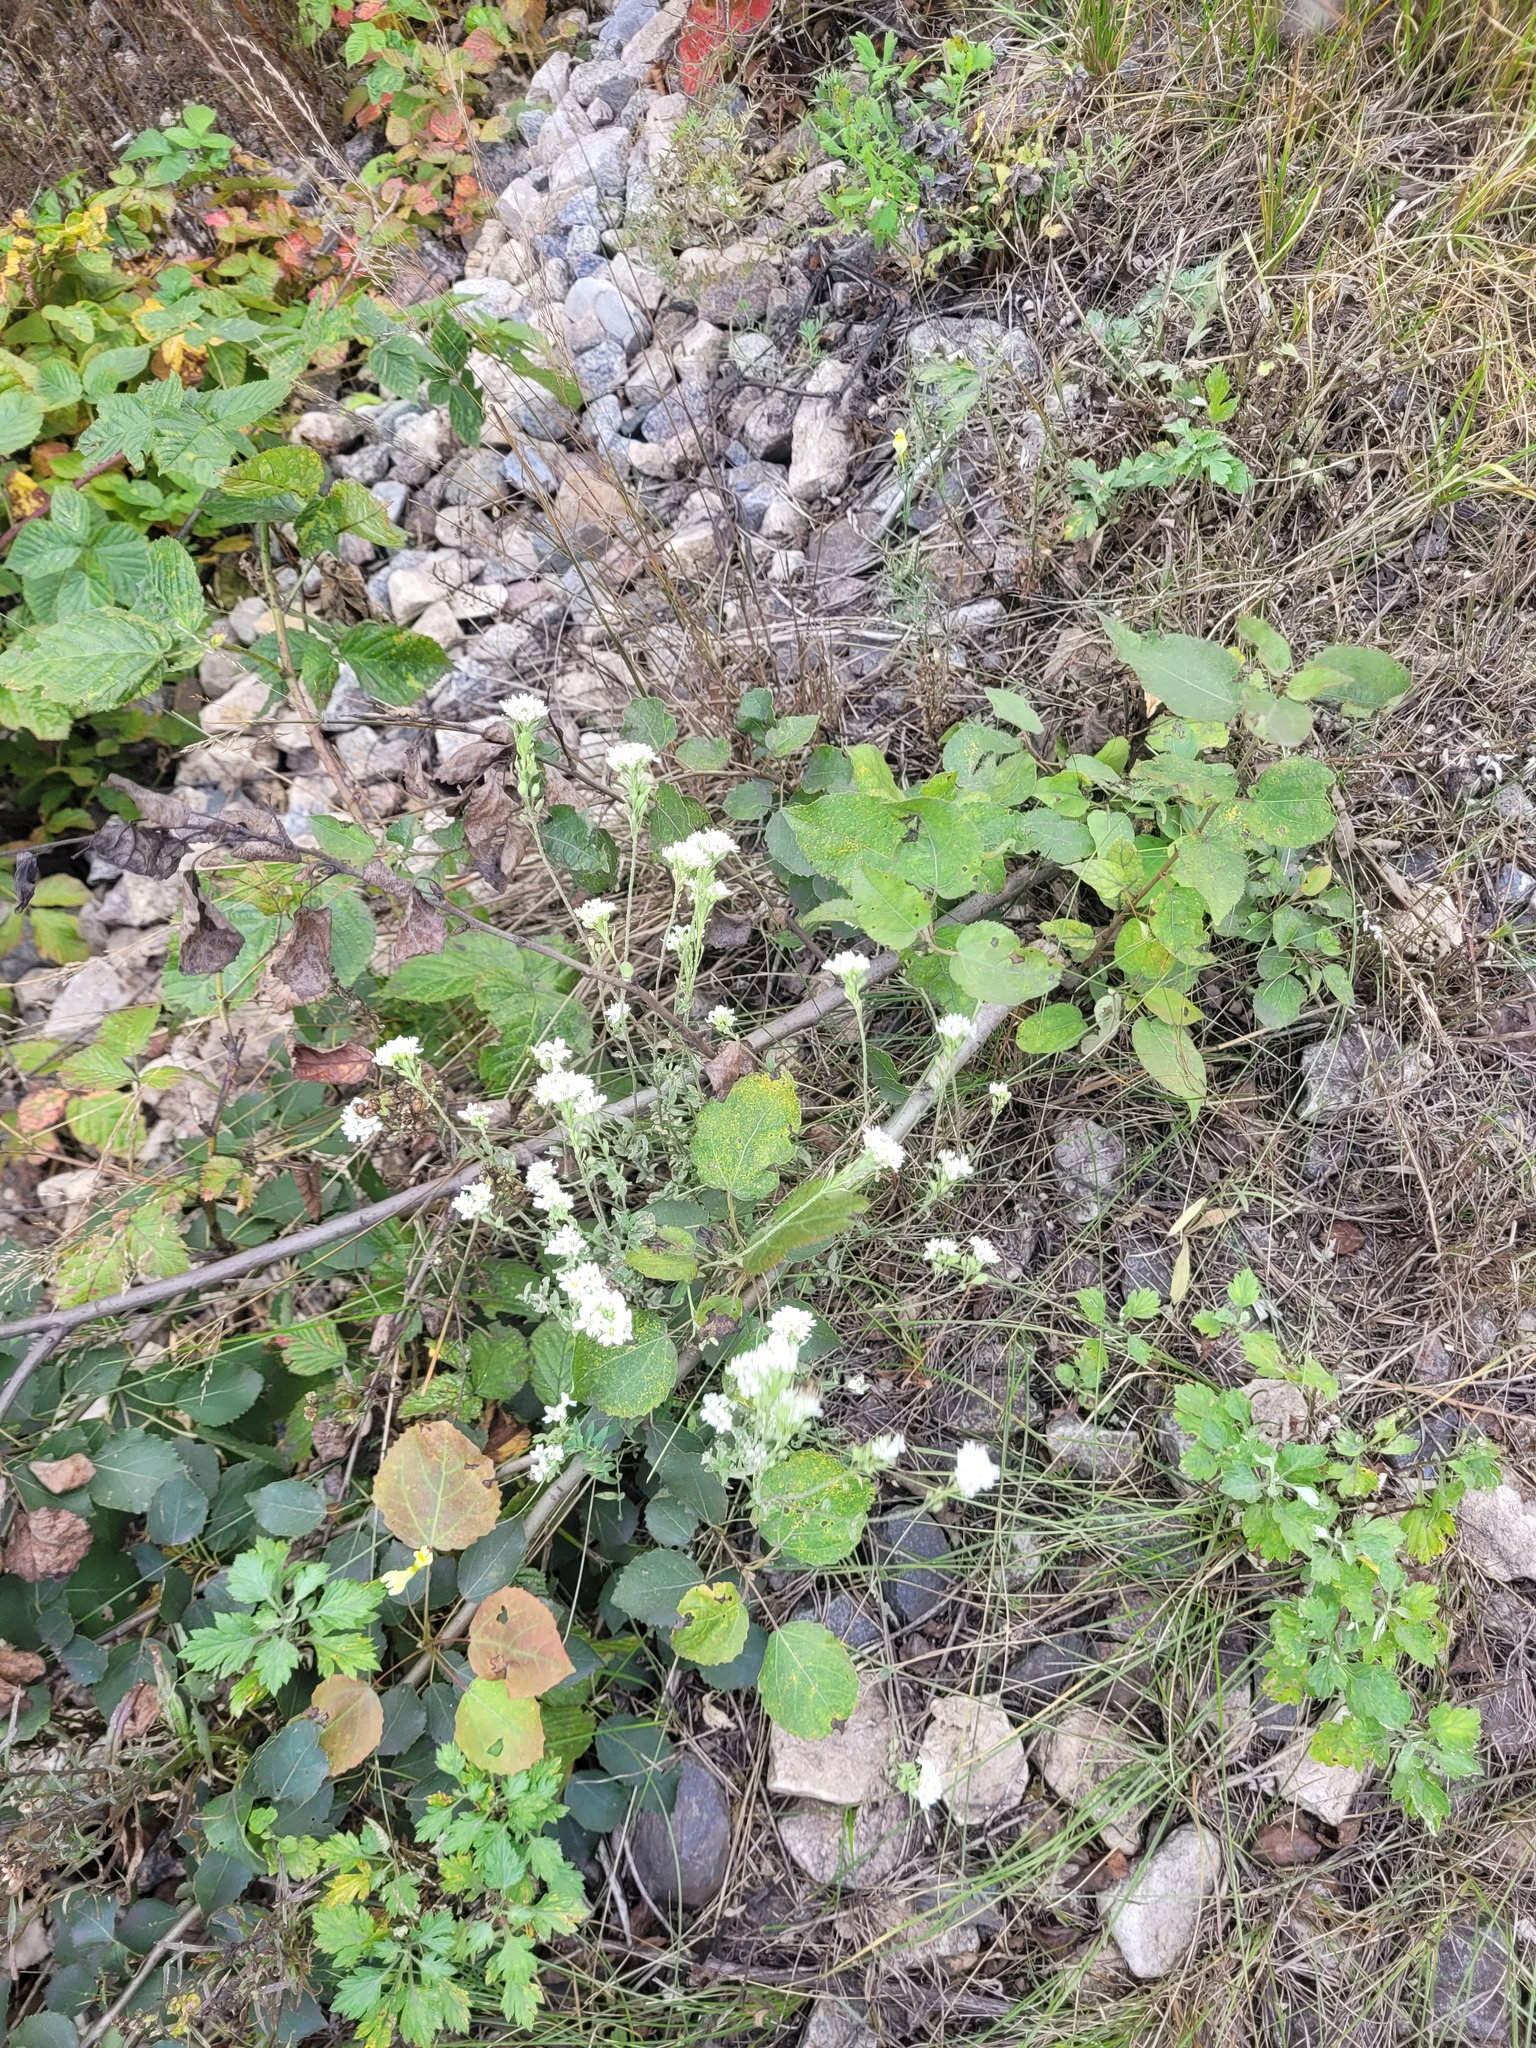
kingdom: Plantae
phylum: Tracheophyta
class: Magnoliopsida
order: Brassicales
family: Brassicaceae
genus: Berteroa
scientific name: Berteroa incana
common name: Hoary alison
